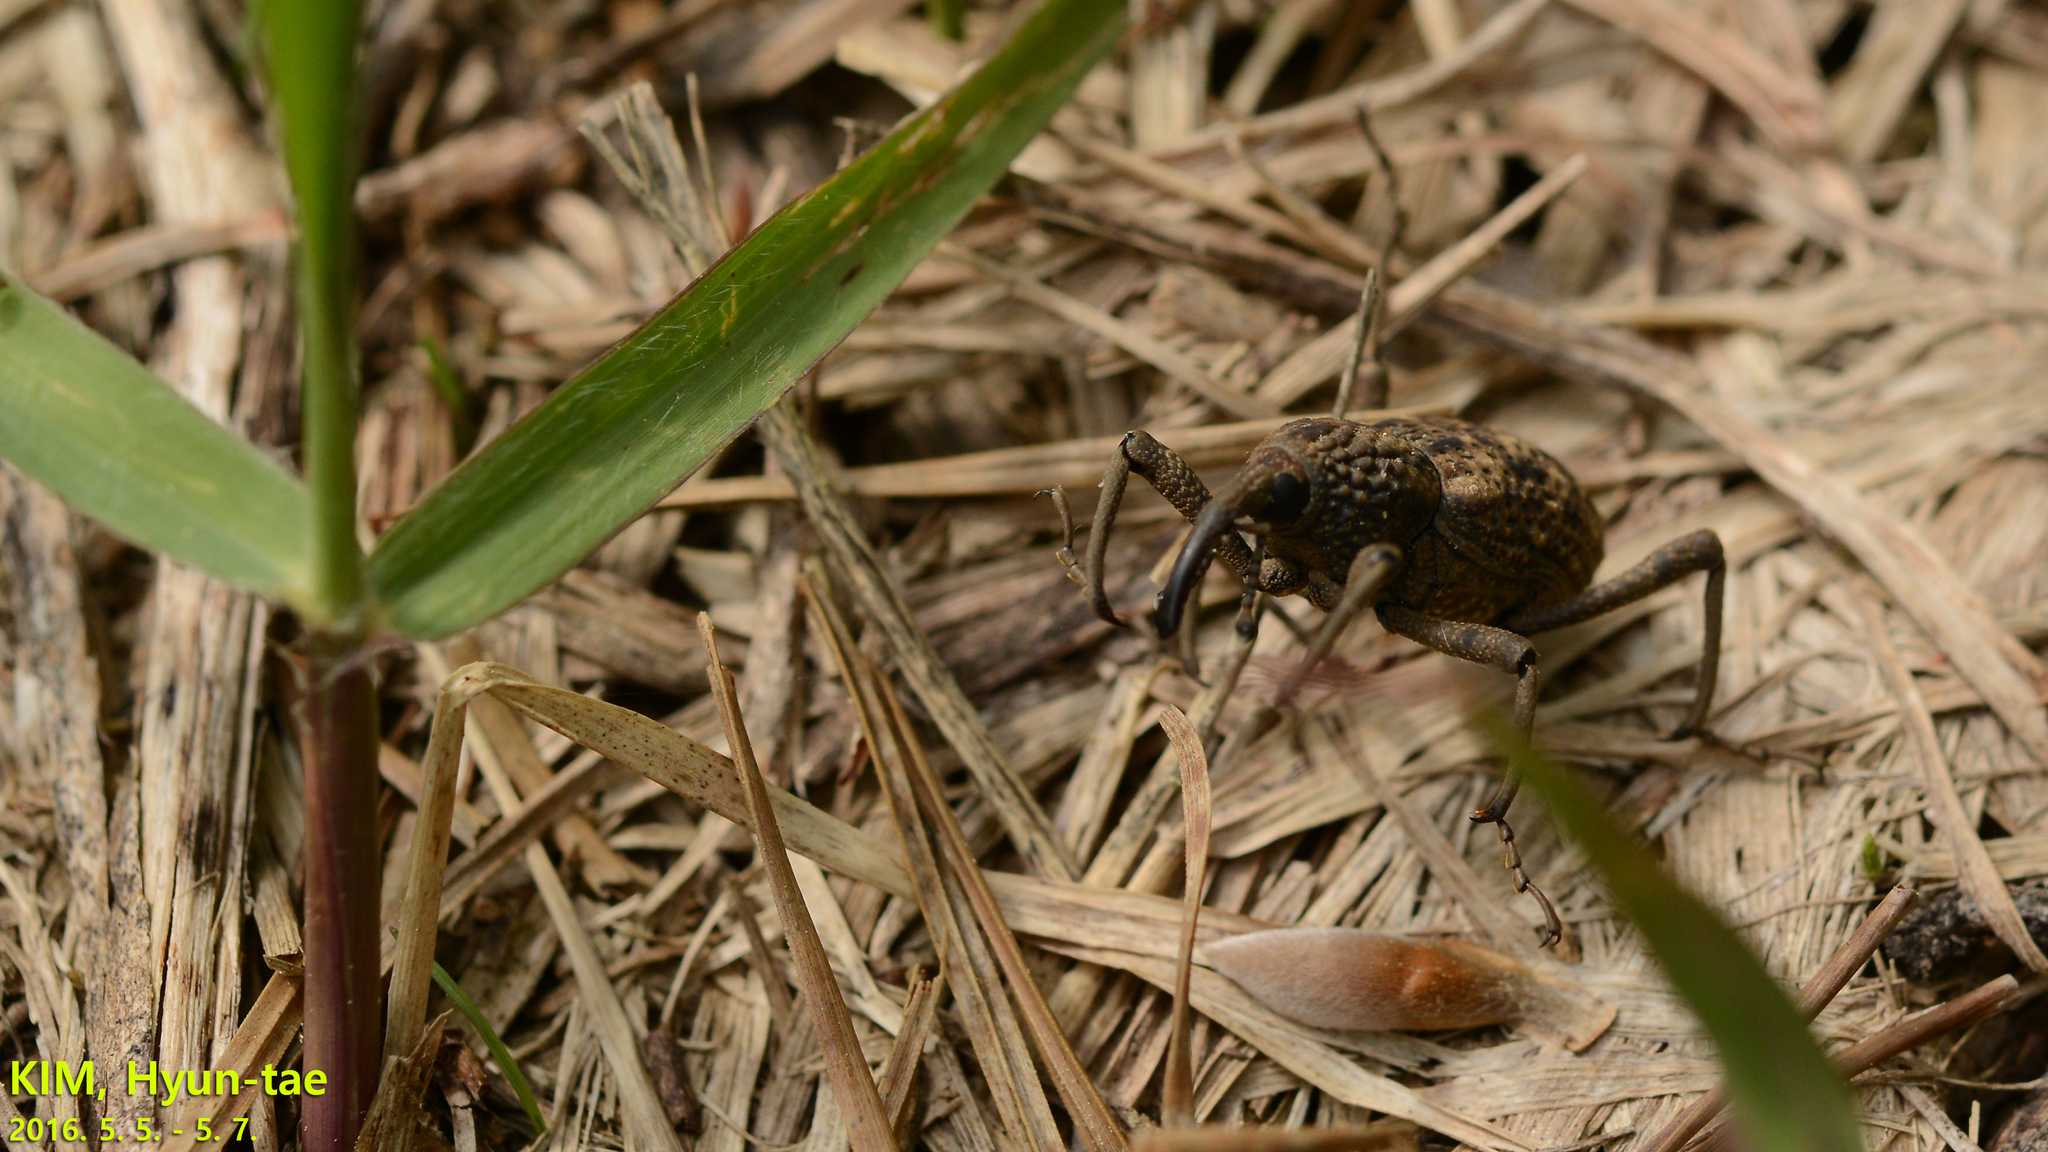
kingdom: Animalia
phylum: Arthropoda
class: Insecta
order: Coleoptera
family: Dryophthoridae
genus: Sipalinus
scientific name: Sipalinus gigas
